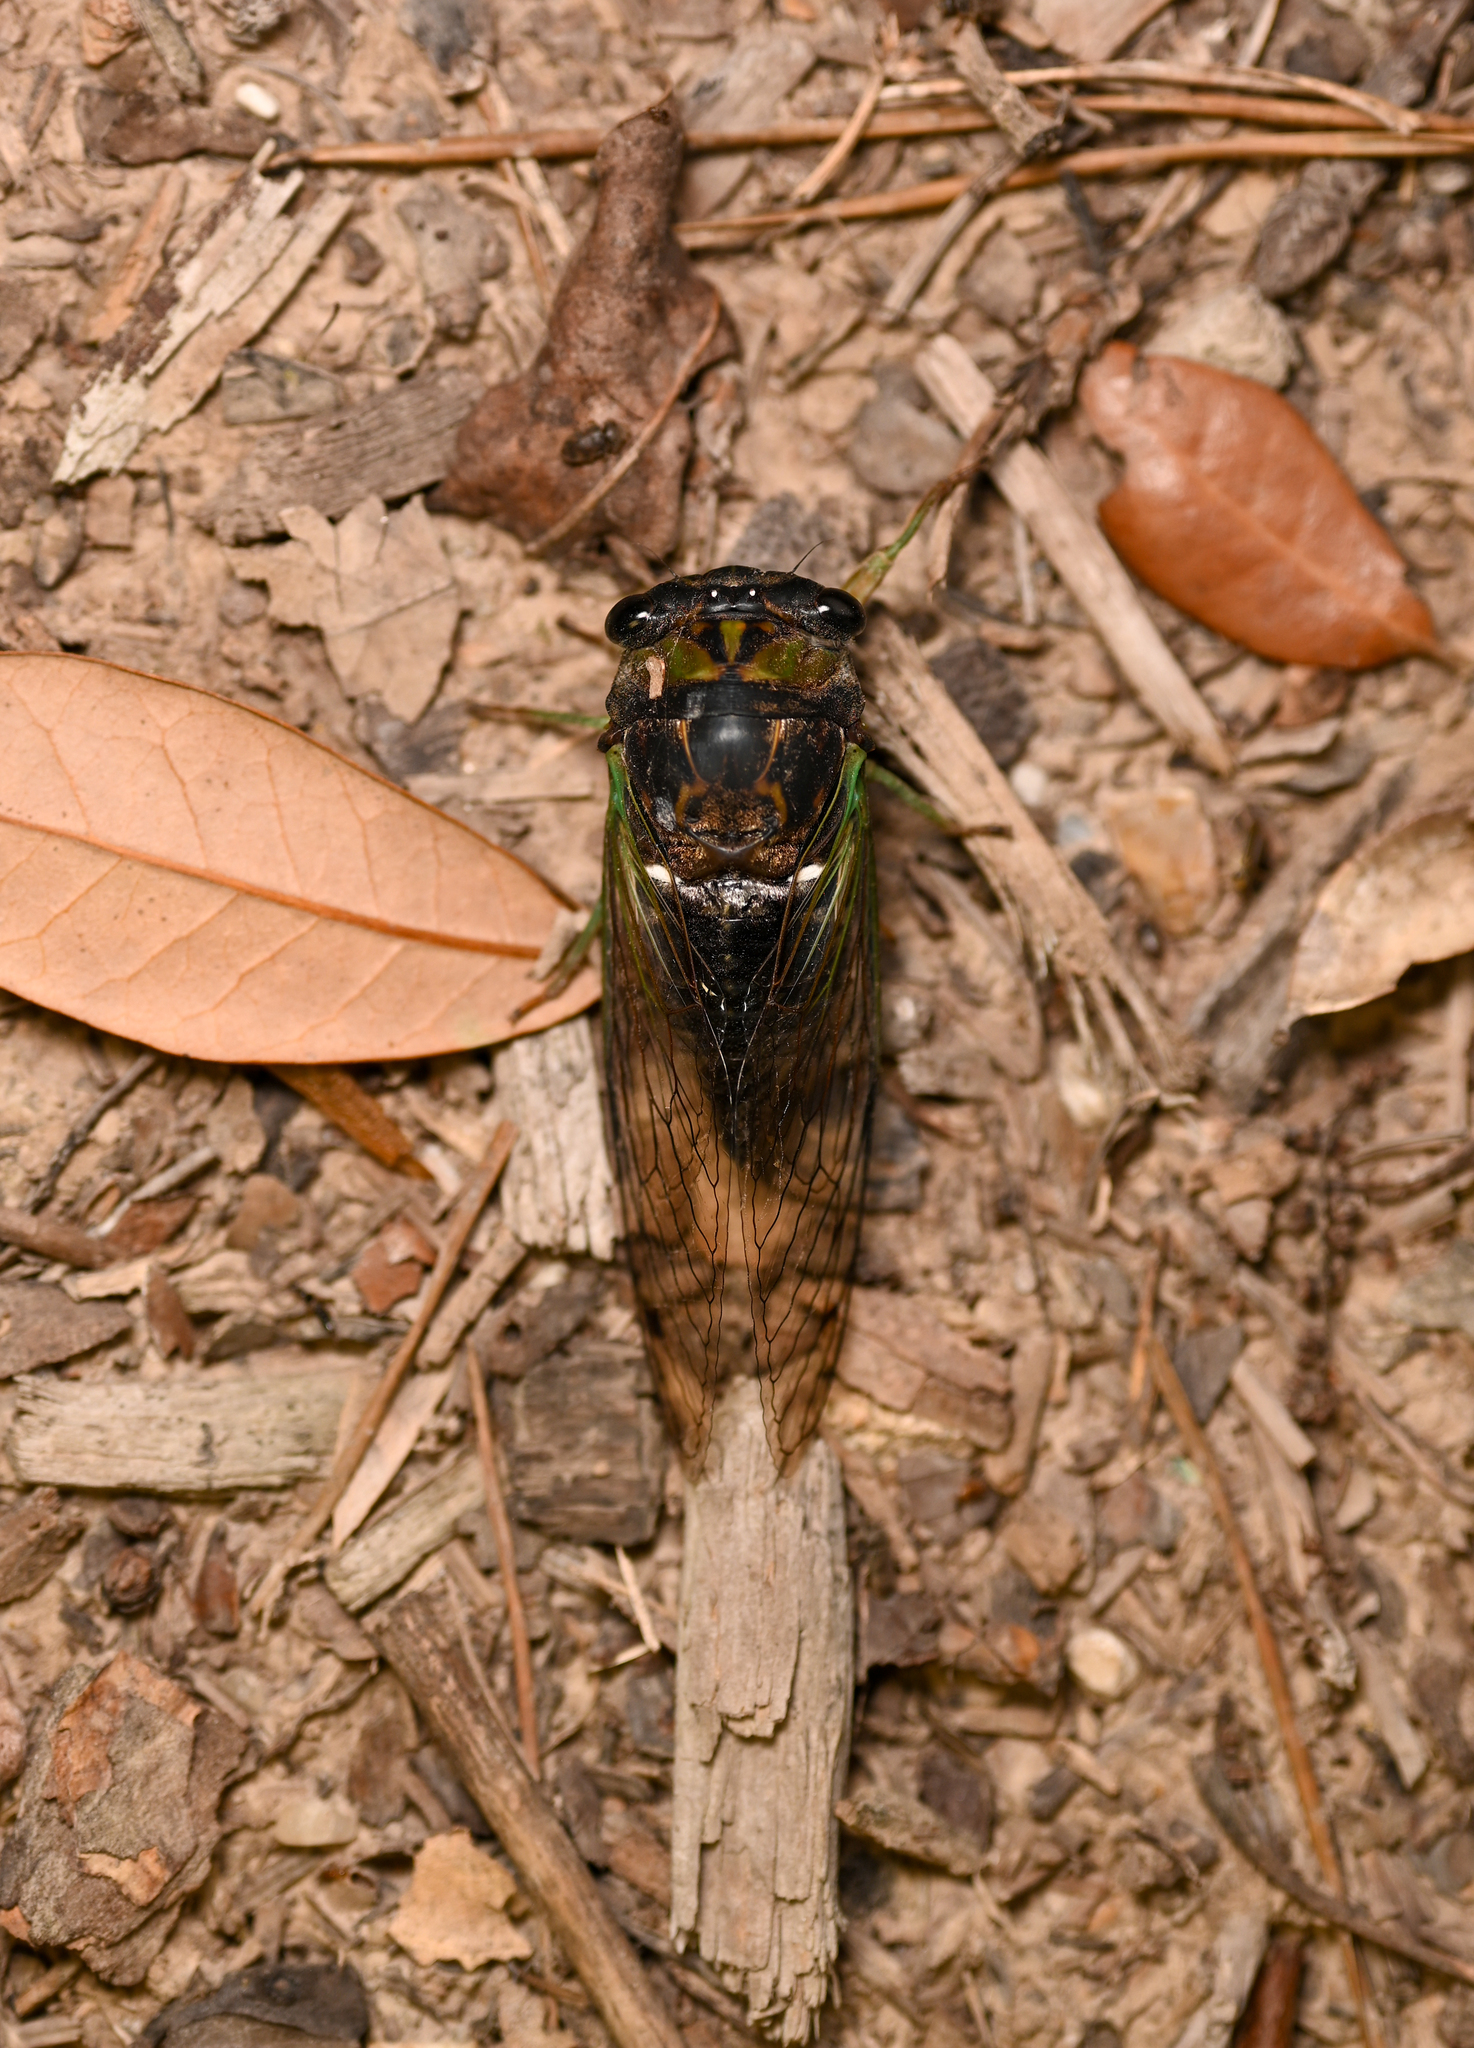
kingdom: Animalia
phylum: Arthropoda
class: Insecta
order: Hemiptera
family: Cicadidae
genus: Neotibicen
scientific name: Neotibicen tibicen
